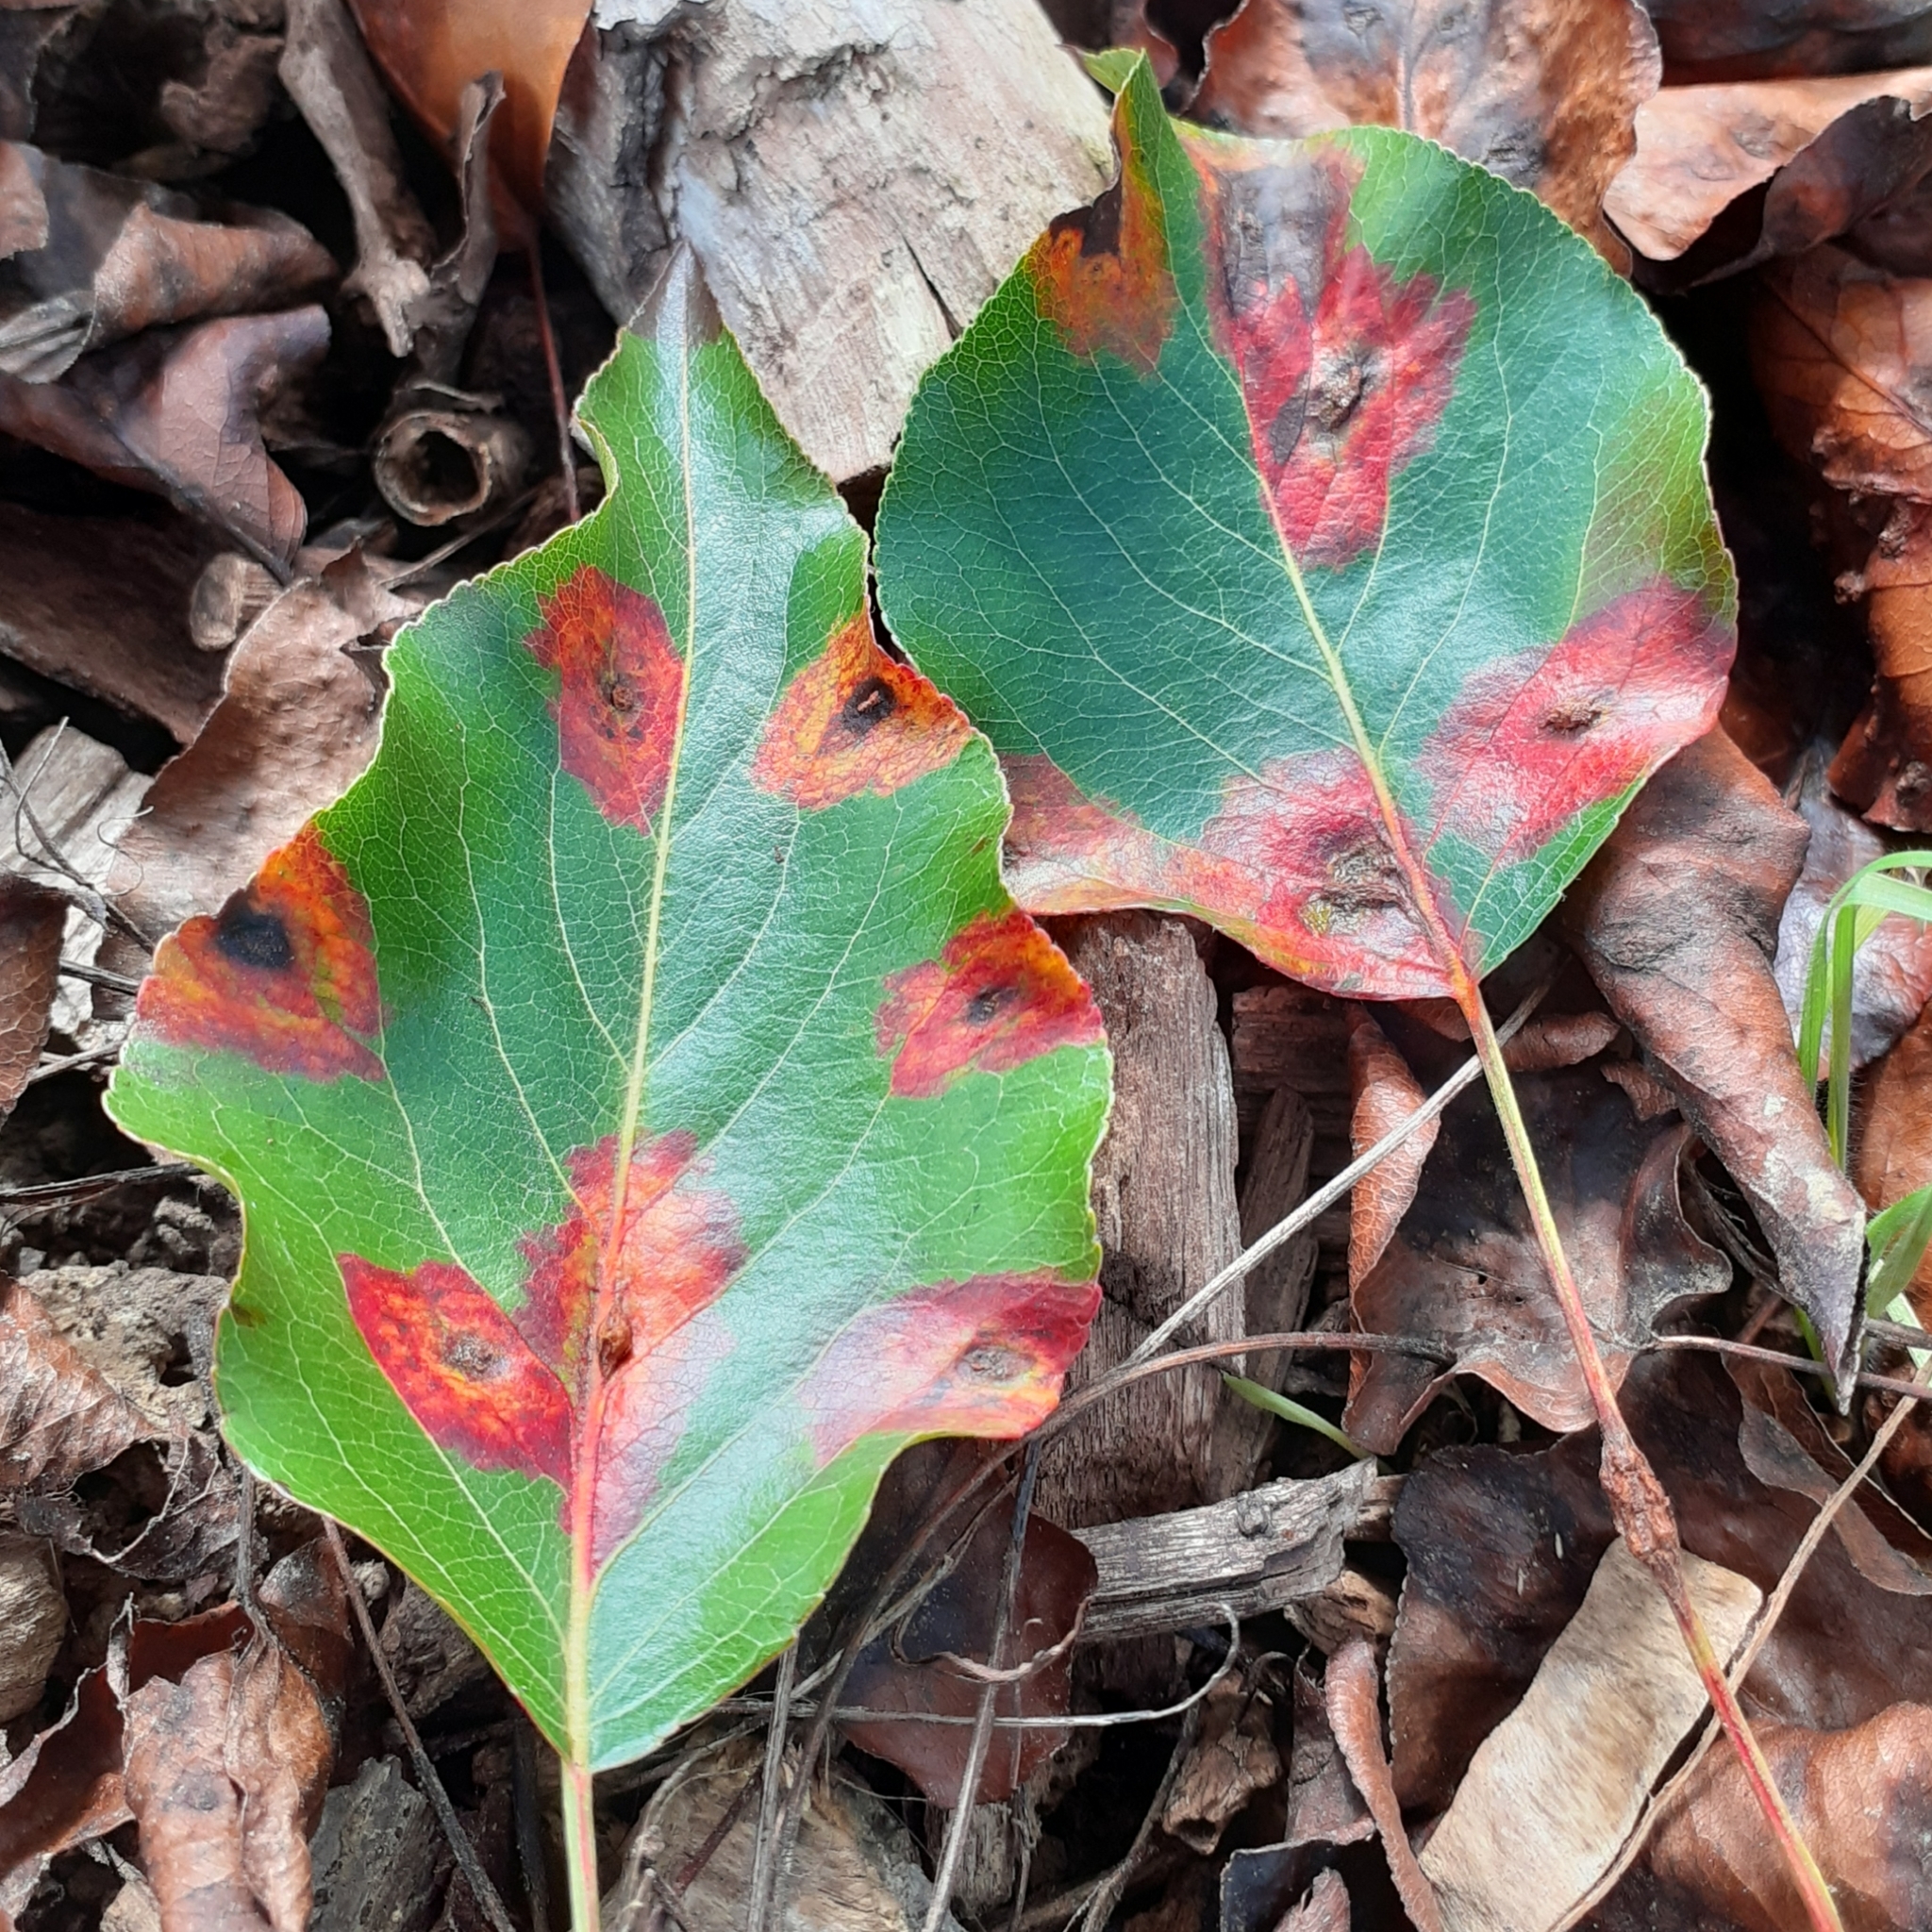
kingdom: Fungi
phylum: Basidiomycota
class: Pucciniomycetes
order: Pucciniales
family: Gymnosporangiaceae
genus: Gymnosporangium
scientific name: Gymnosporangium sabinae
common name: Pear trellis rust fungus
